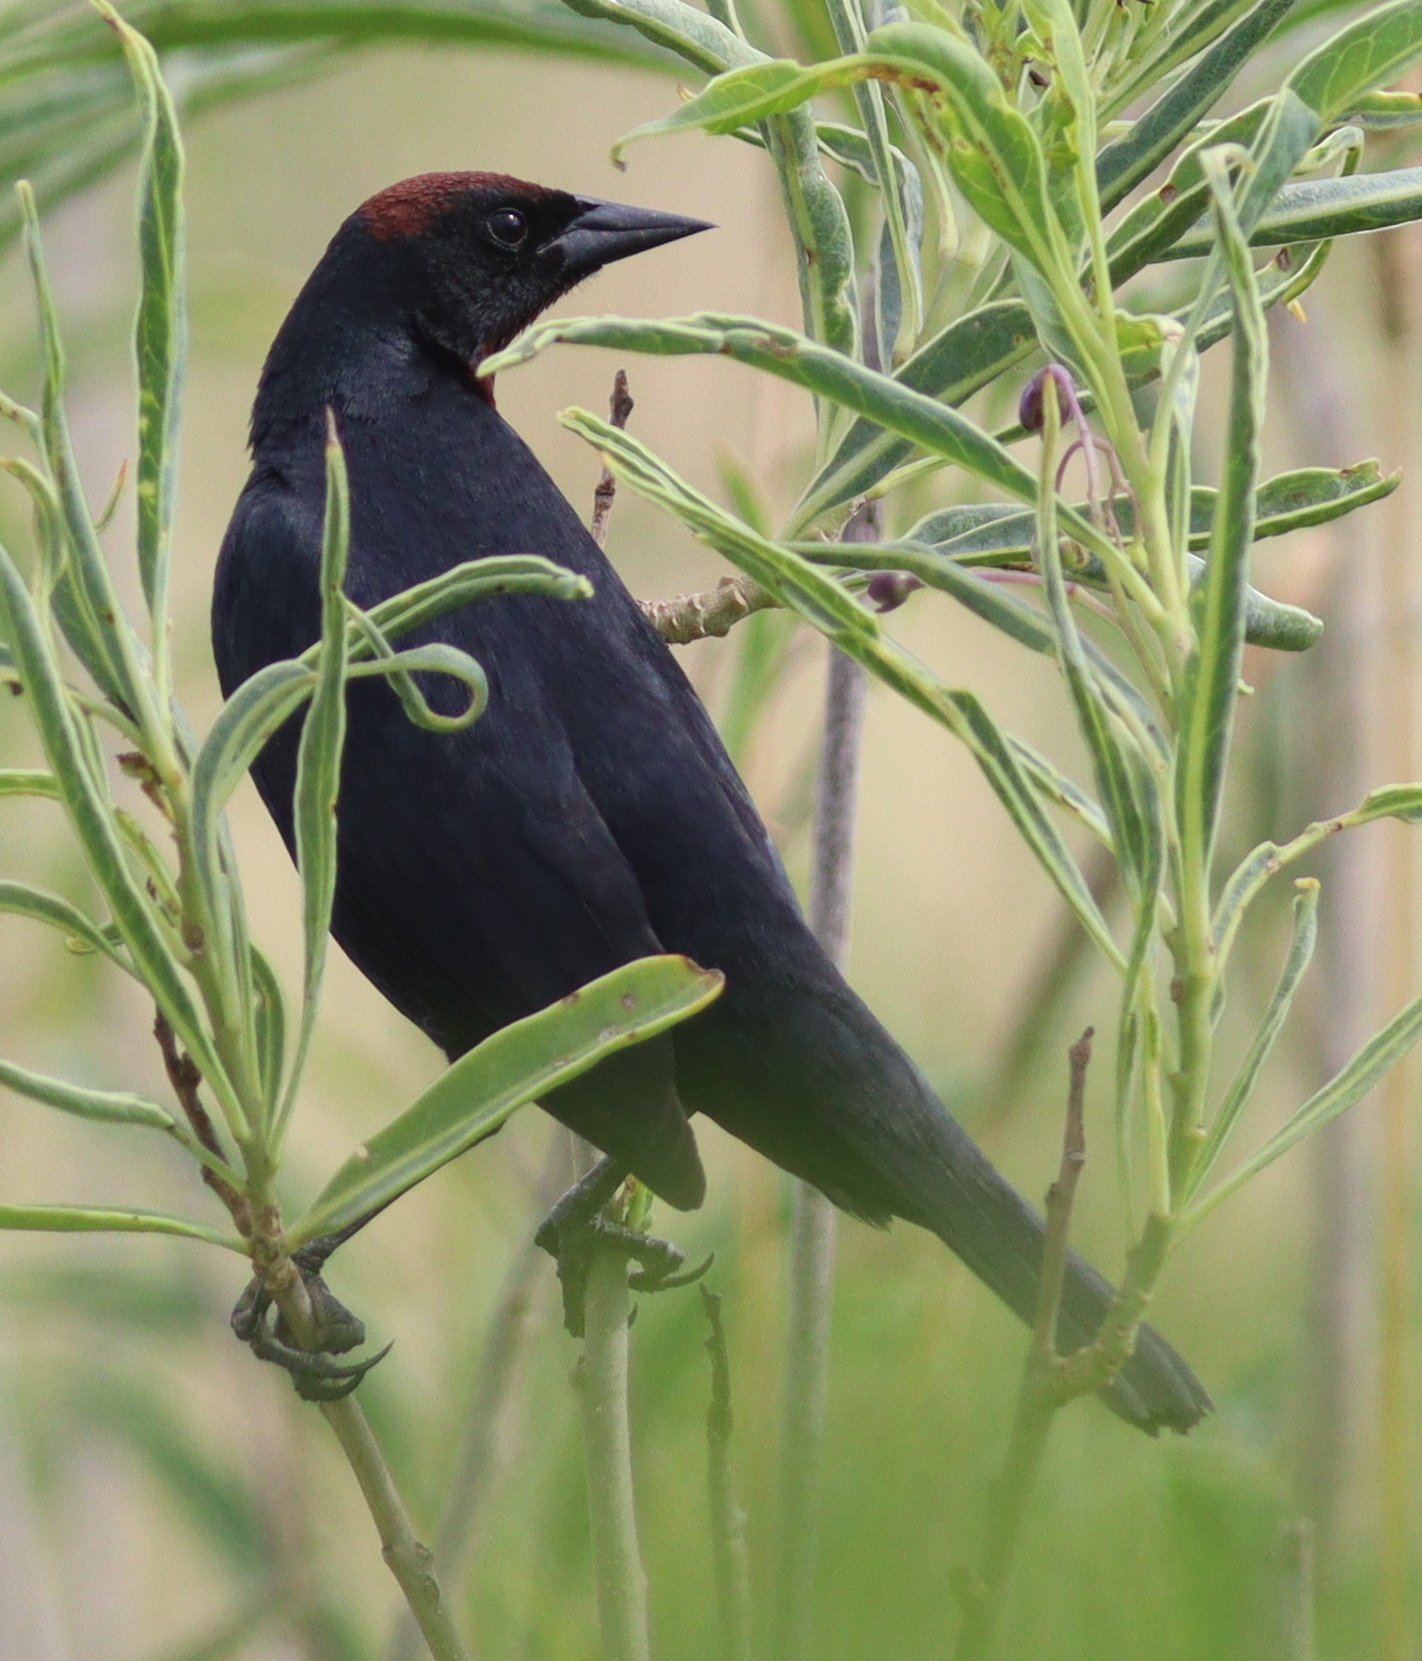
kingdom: Animalia
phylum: Chordata
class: Aves
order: Passeriformes
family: Icteridae
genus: Chrysomus
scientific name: Chrysomus ruficapillus
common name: Chestnut-capped blackbird
